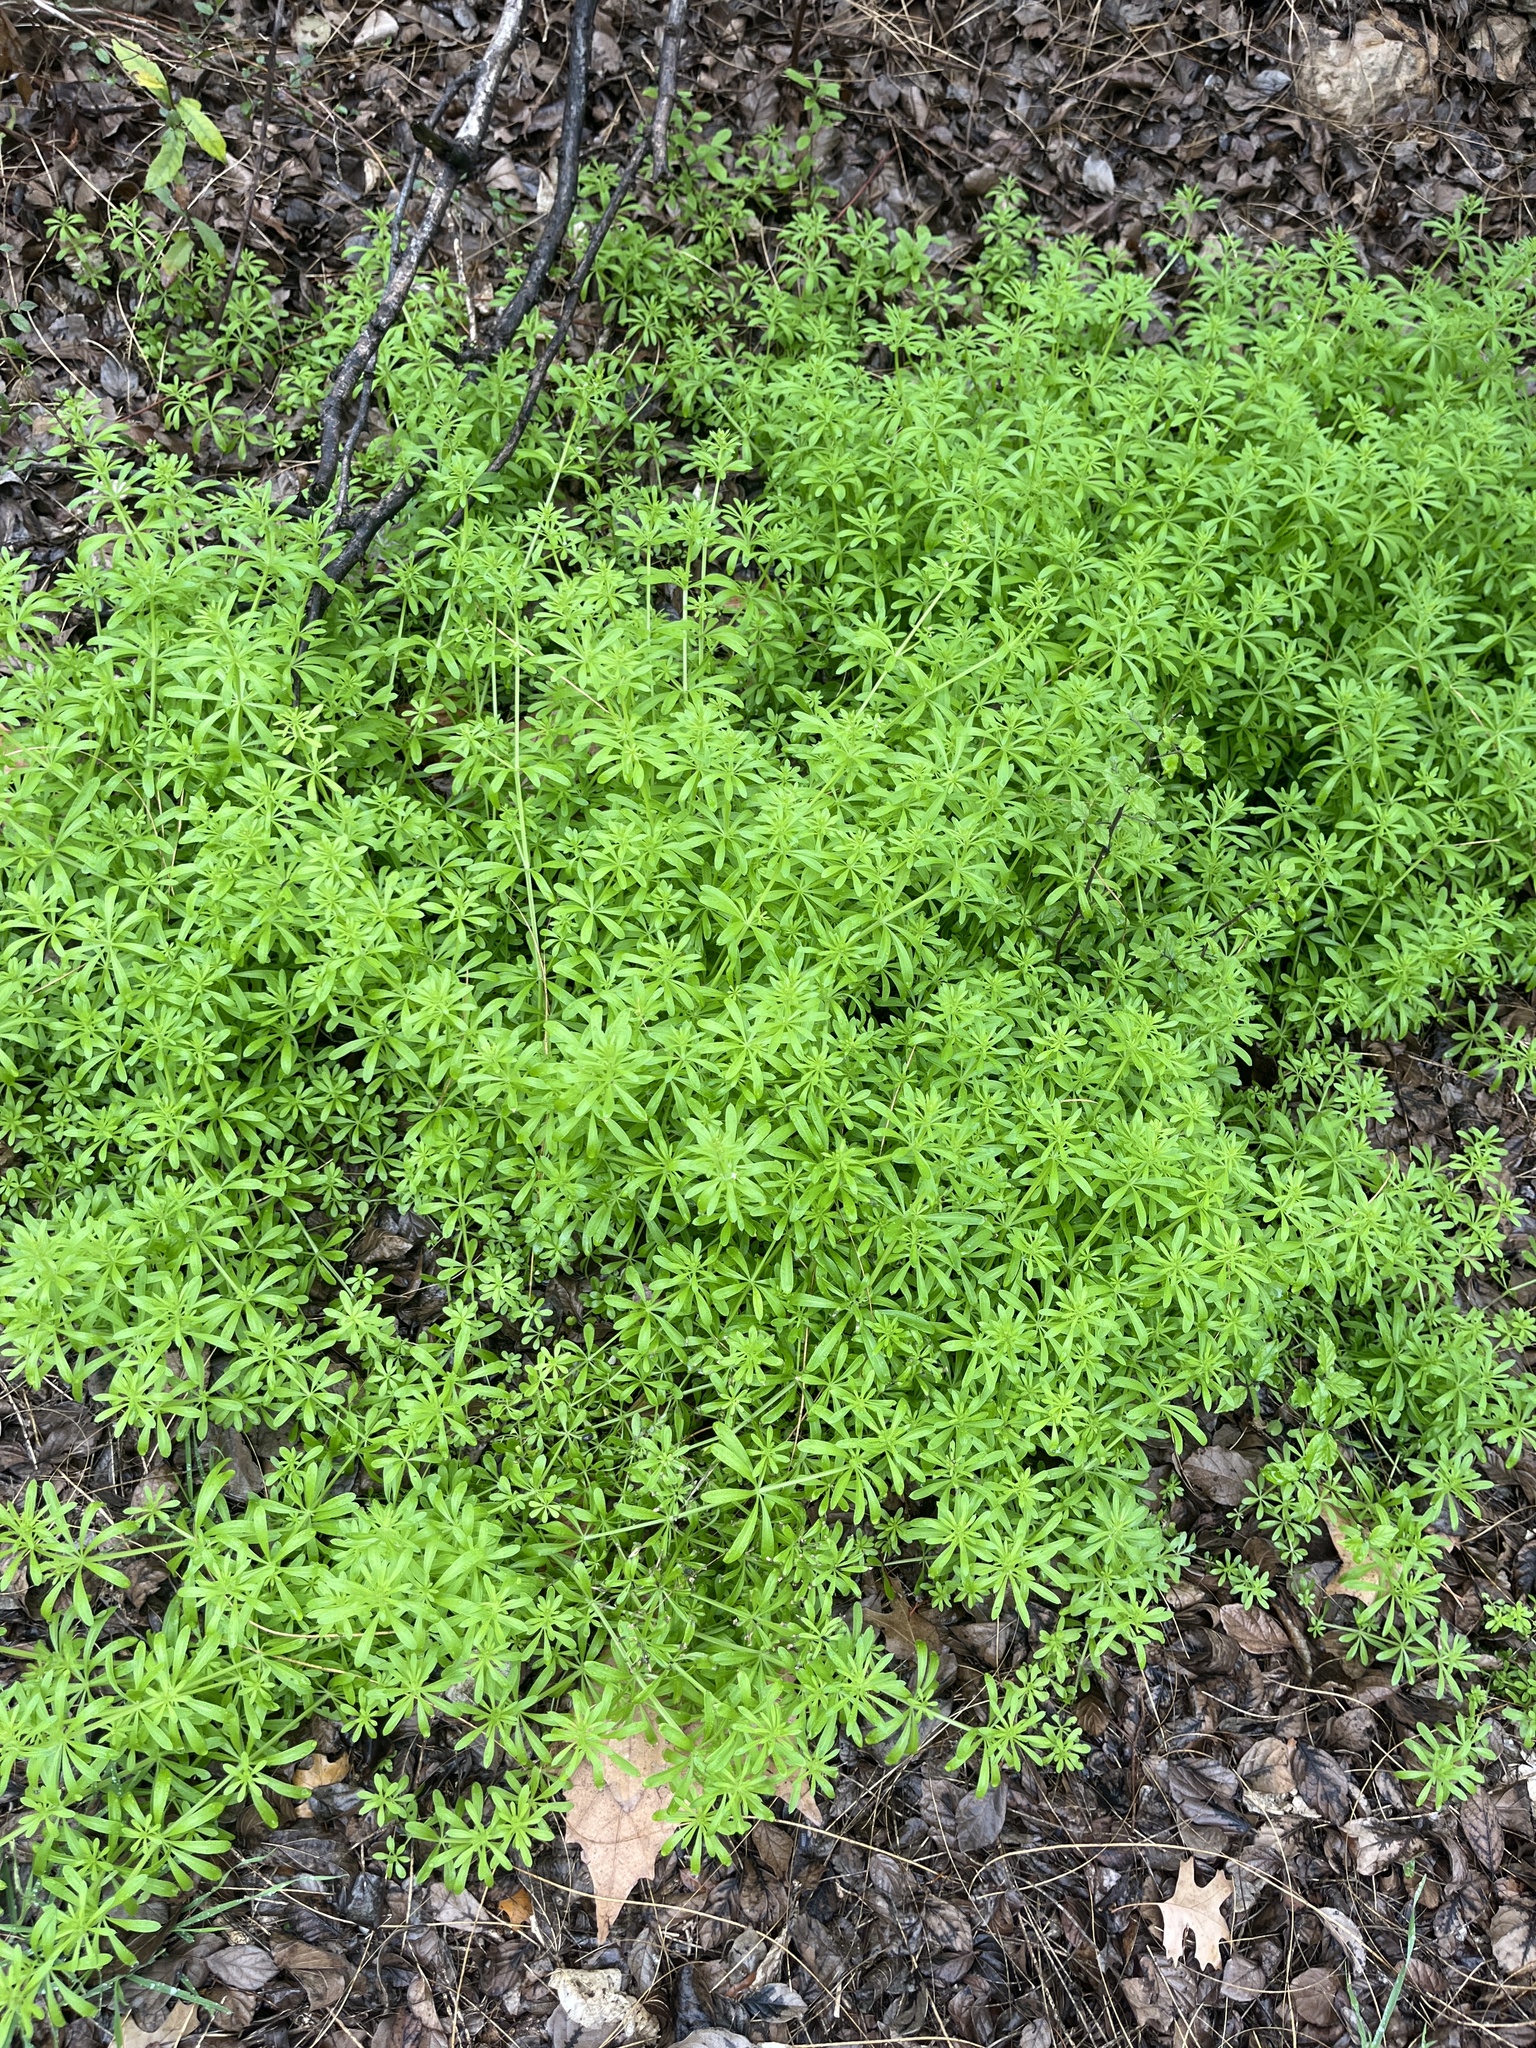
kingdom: Plantae
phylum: Tracheophyta
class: Magnoliopsida
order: Gentianales
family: Rubiaceae
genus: Galium
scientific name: Galium aparine
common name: Cleavers
